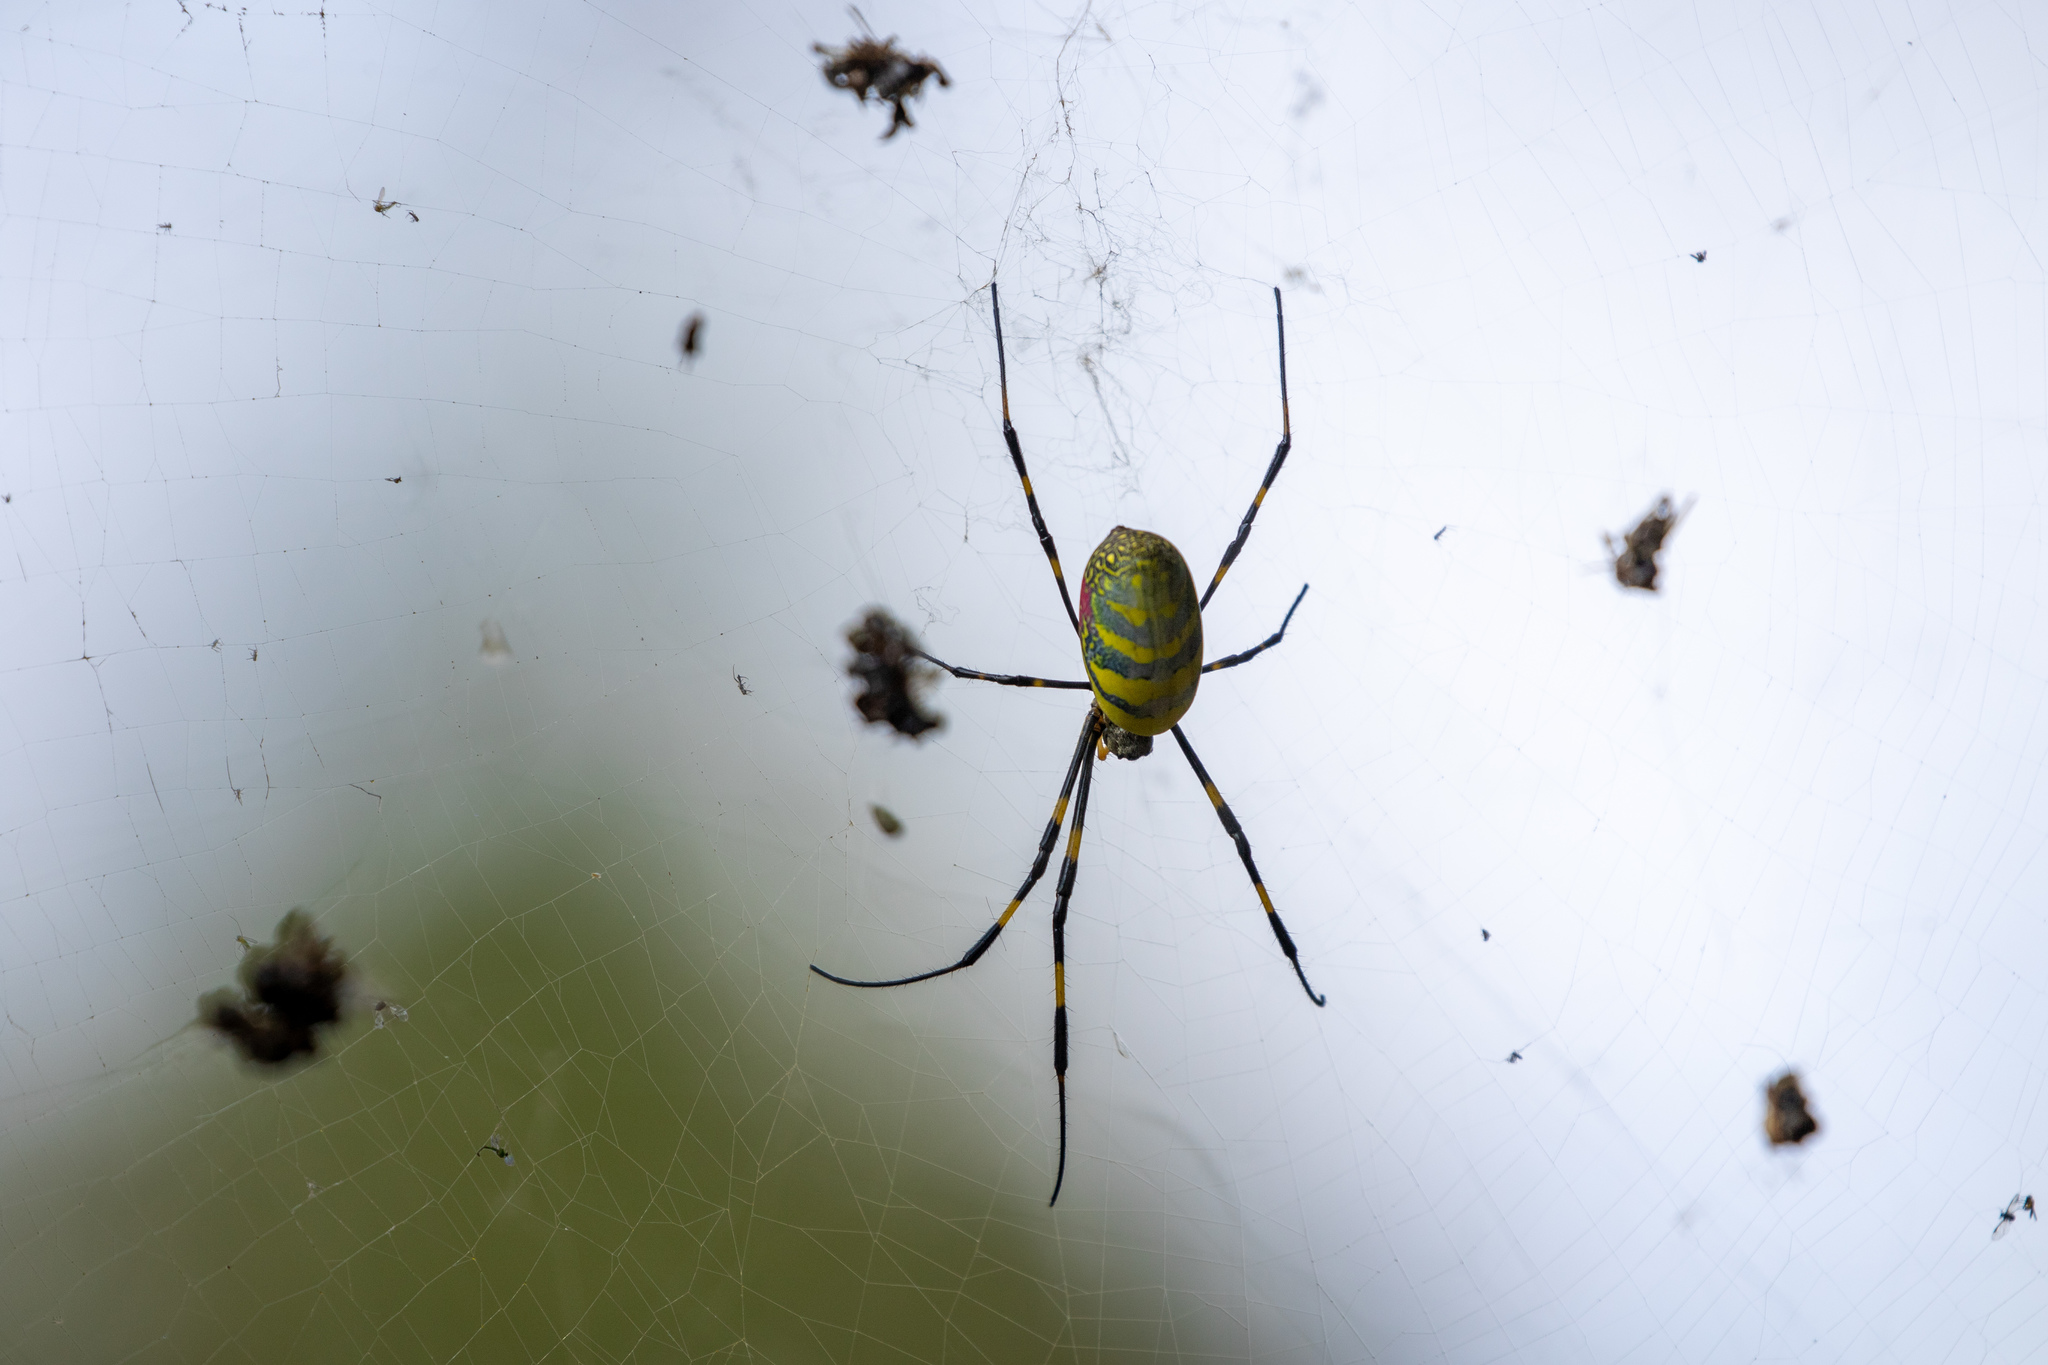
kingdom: Animalia
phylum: Arthropoda
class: Arachnida
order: Araneae
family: Araneidae
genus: Trichonephila
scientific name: Trichonephila clavata
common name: Jorō spider
